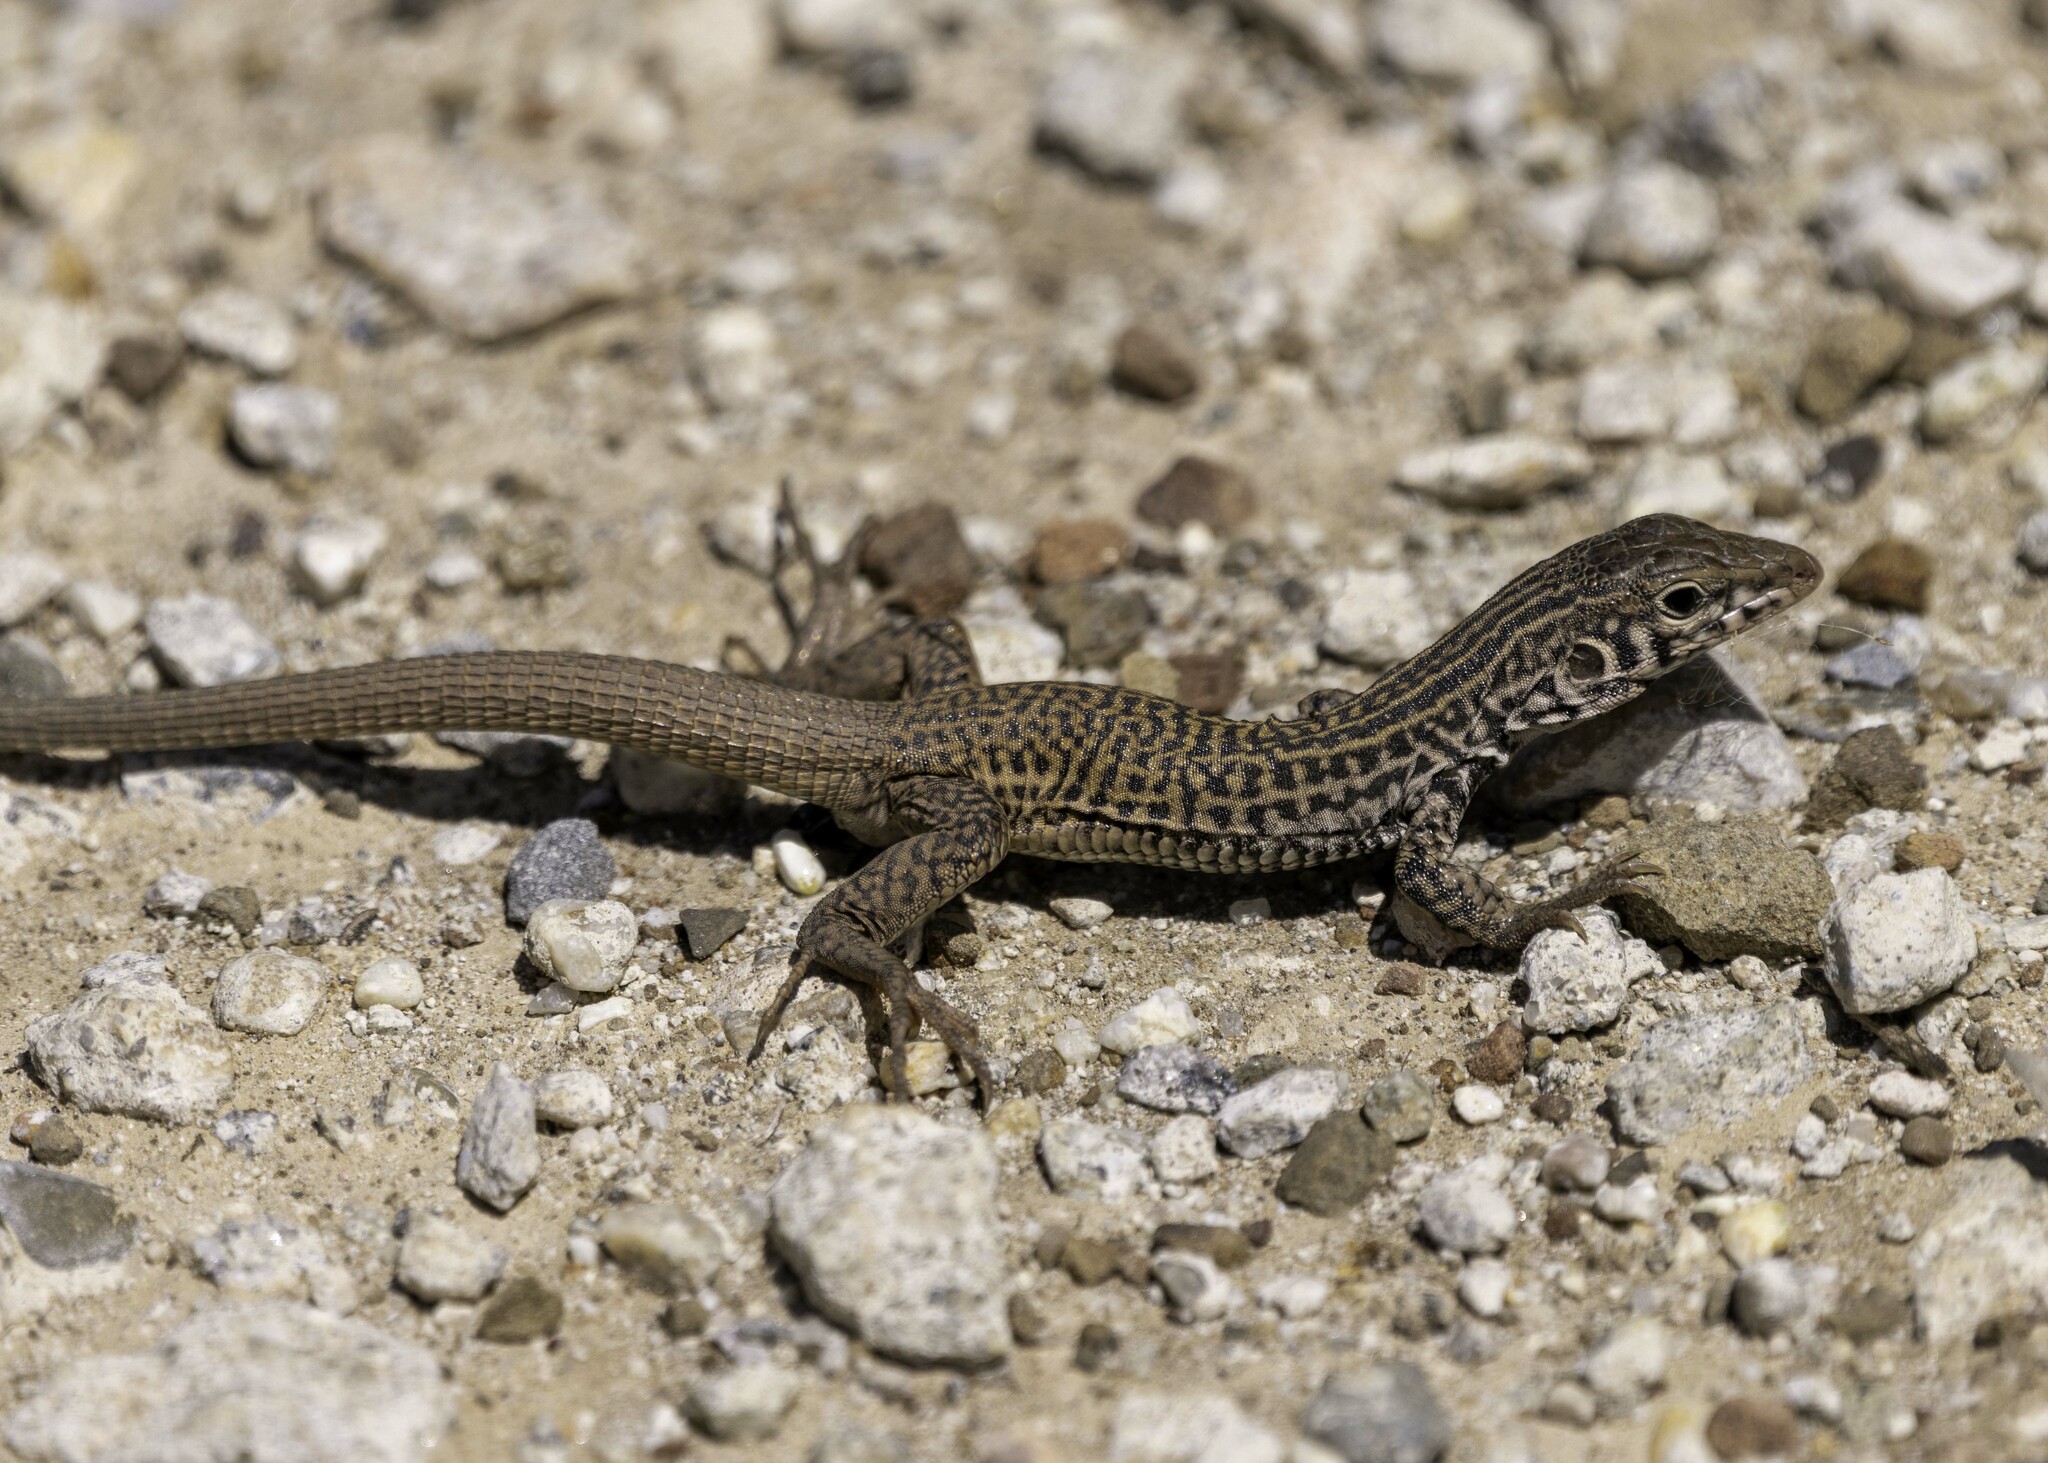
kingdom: Animalia
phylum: Chordata
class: Squamata
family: Teiidae
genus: Aspidoscelis
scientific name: Aspidoscelis tigris
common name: Tiger whiptail
